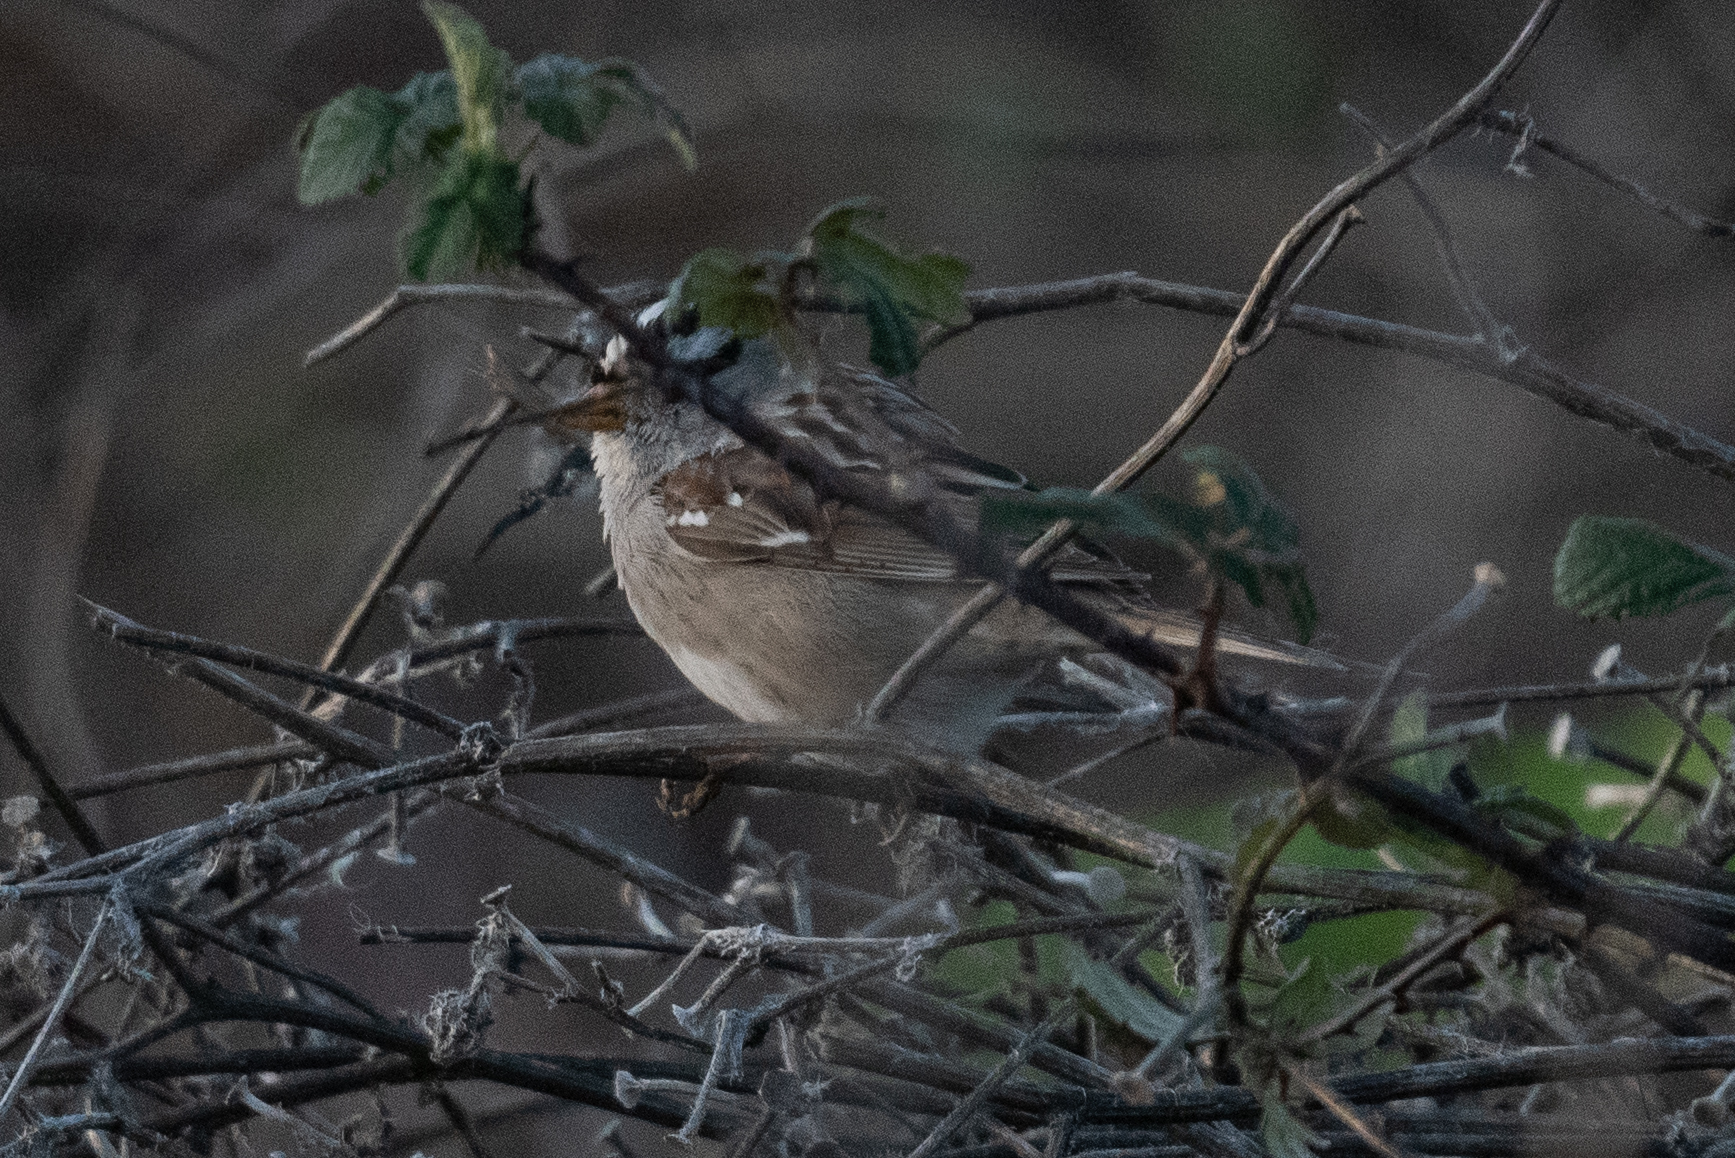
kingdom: Animalia
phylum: Chordata
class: Aves
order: Passeriformes
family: Passerellidae
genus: Zonotrichia
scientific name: Zonotrichia leucophrys
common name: White-crowned sparrow
